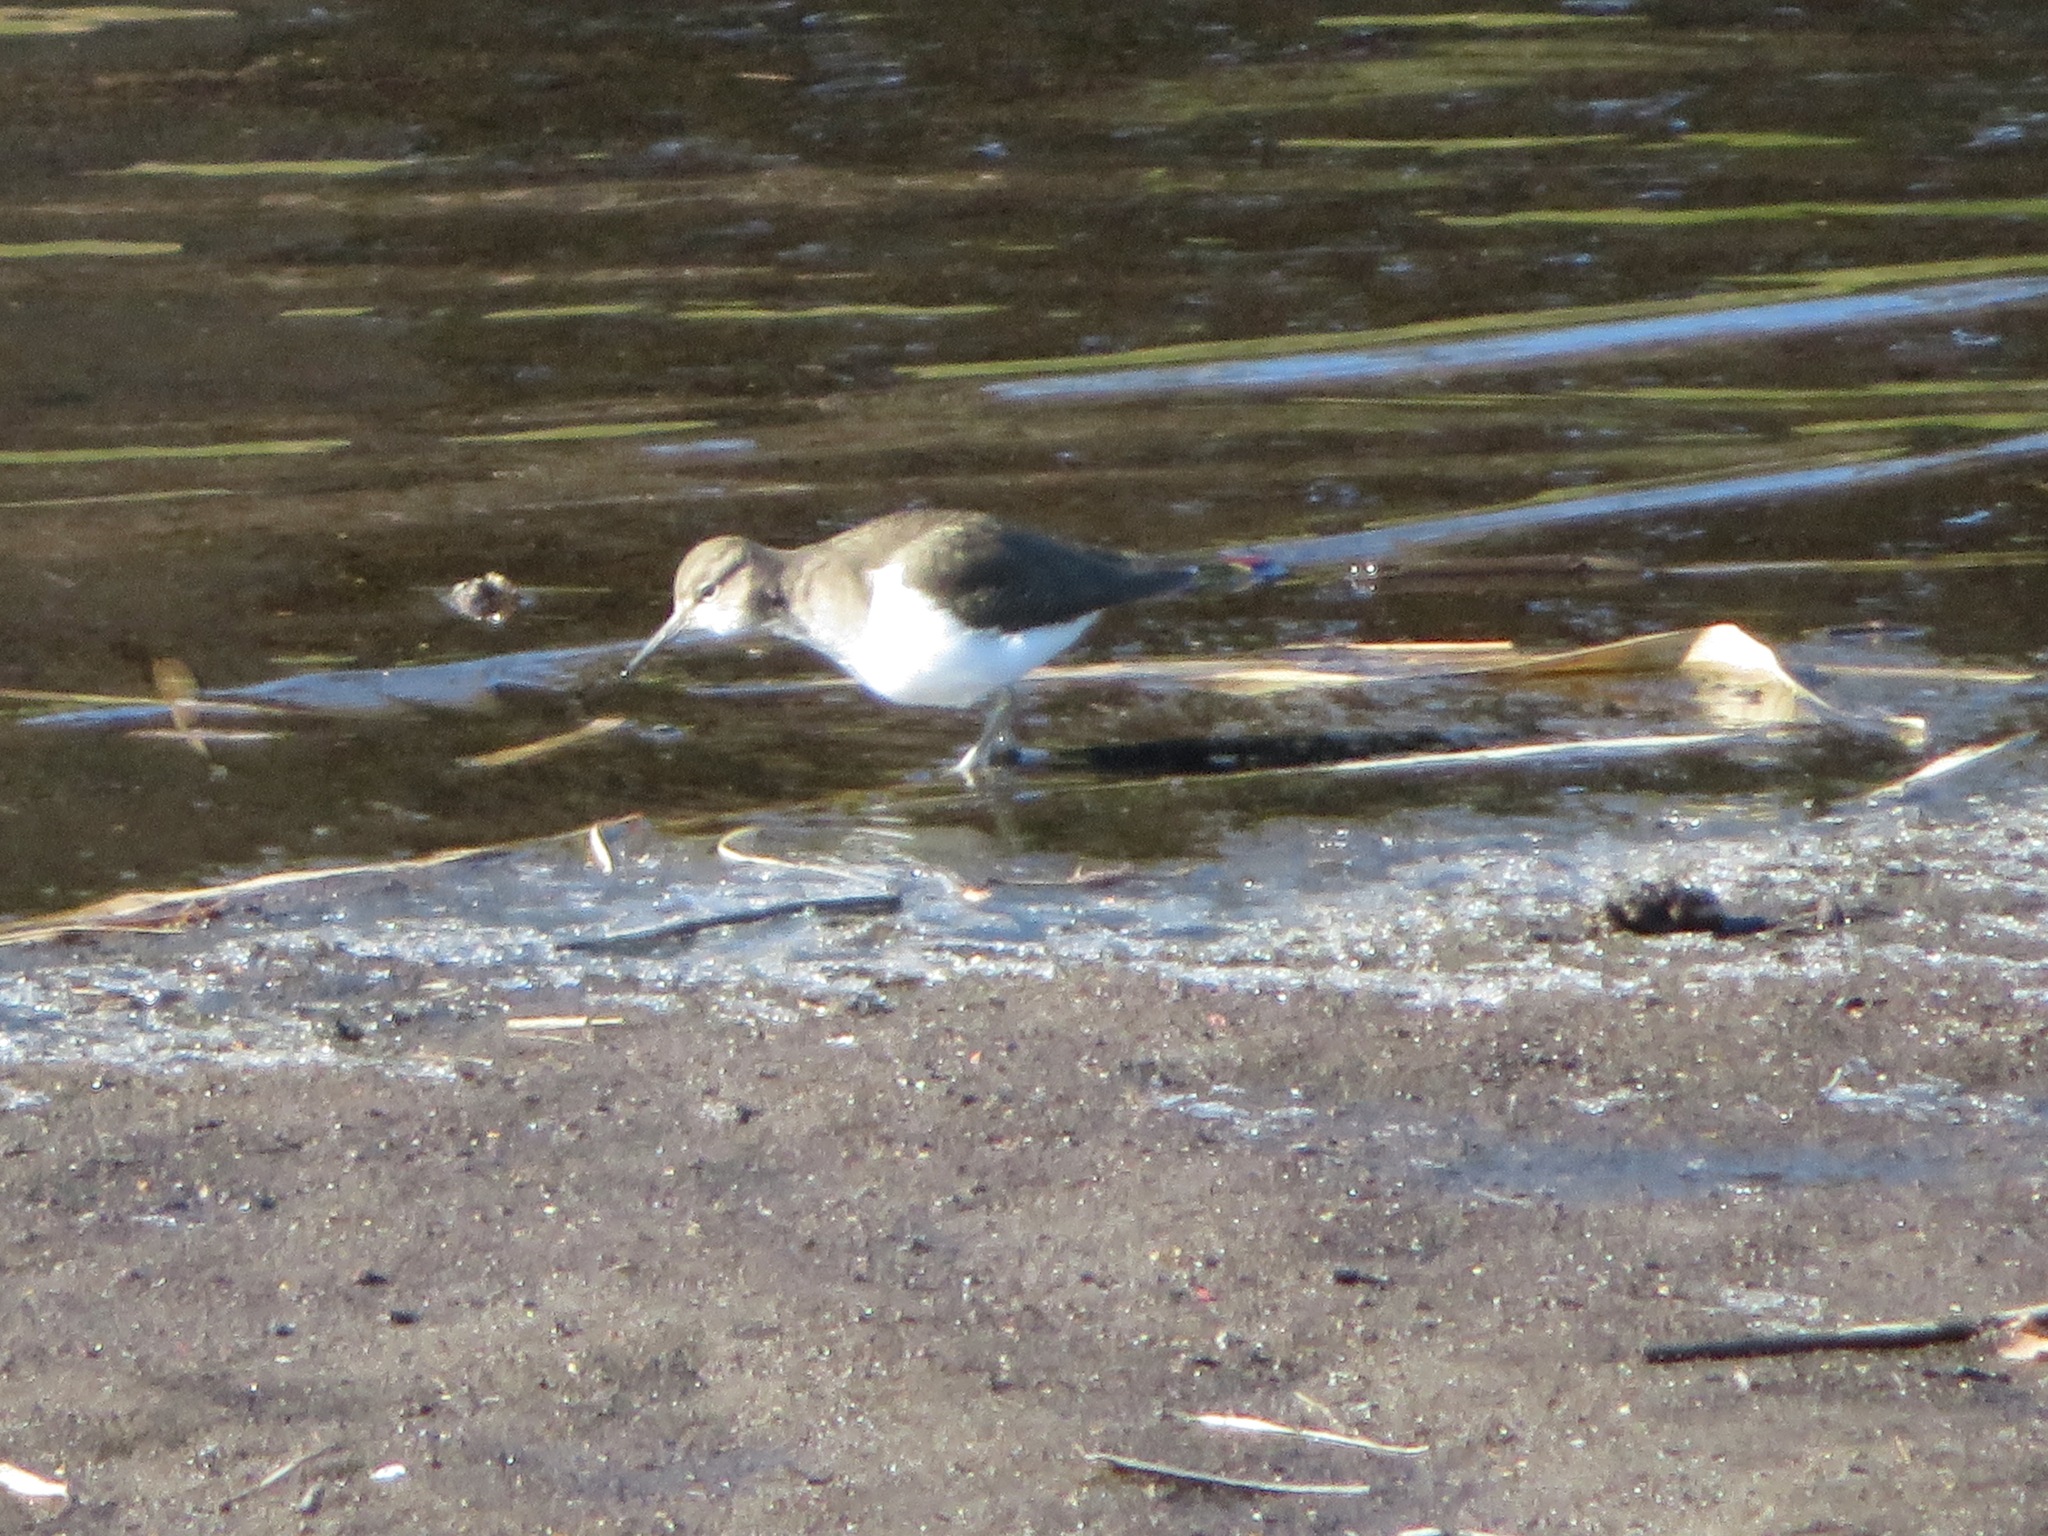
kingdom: Animalia
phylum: Chordata
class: Aves
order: Charadriiformes
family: Scolopacidae
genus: Actitis
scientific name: Actitis hypoleucos
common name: Common sandpiper
